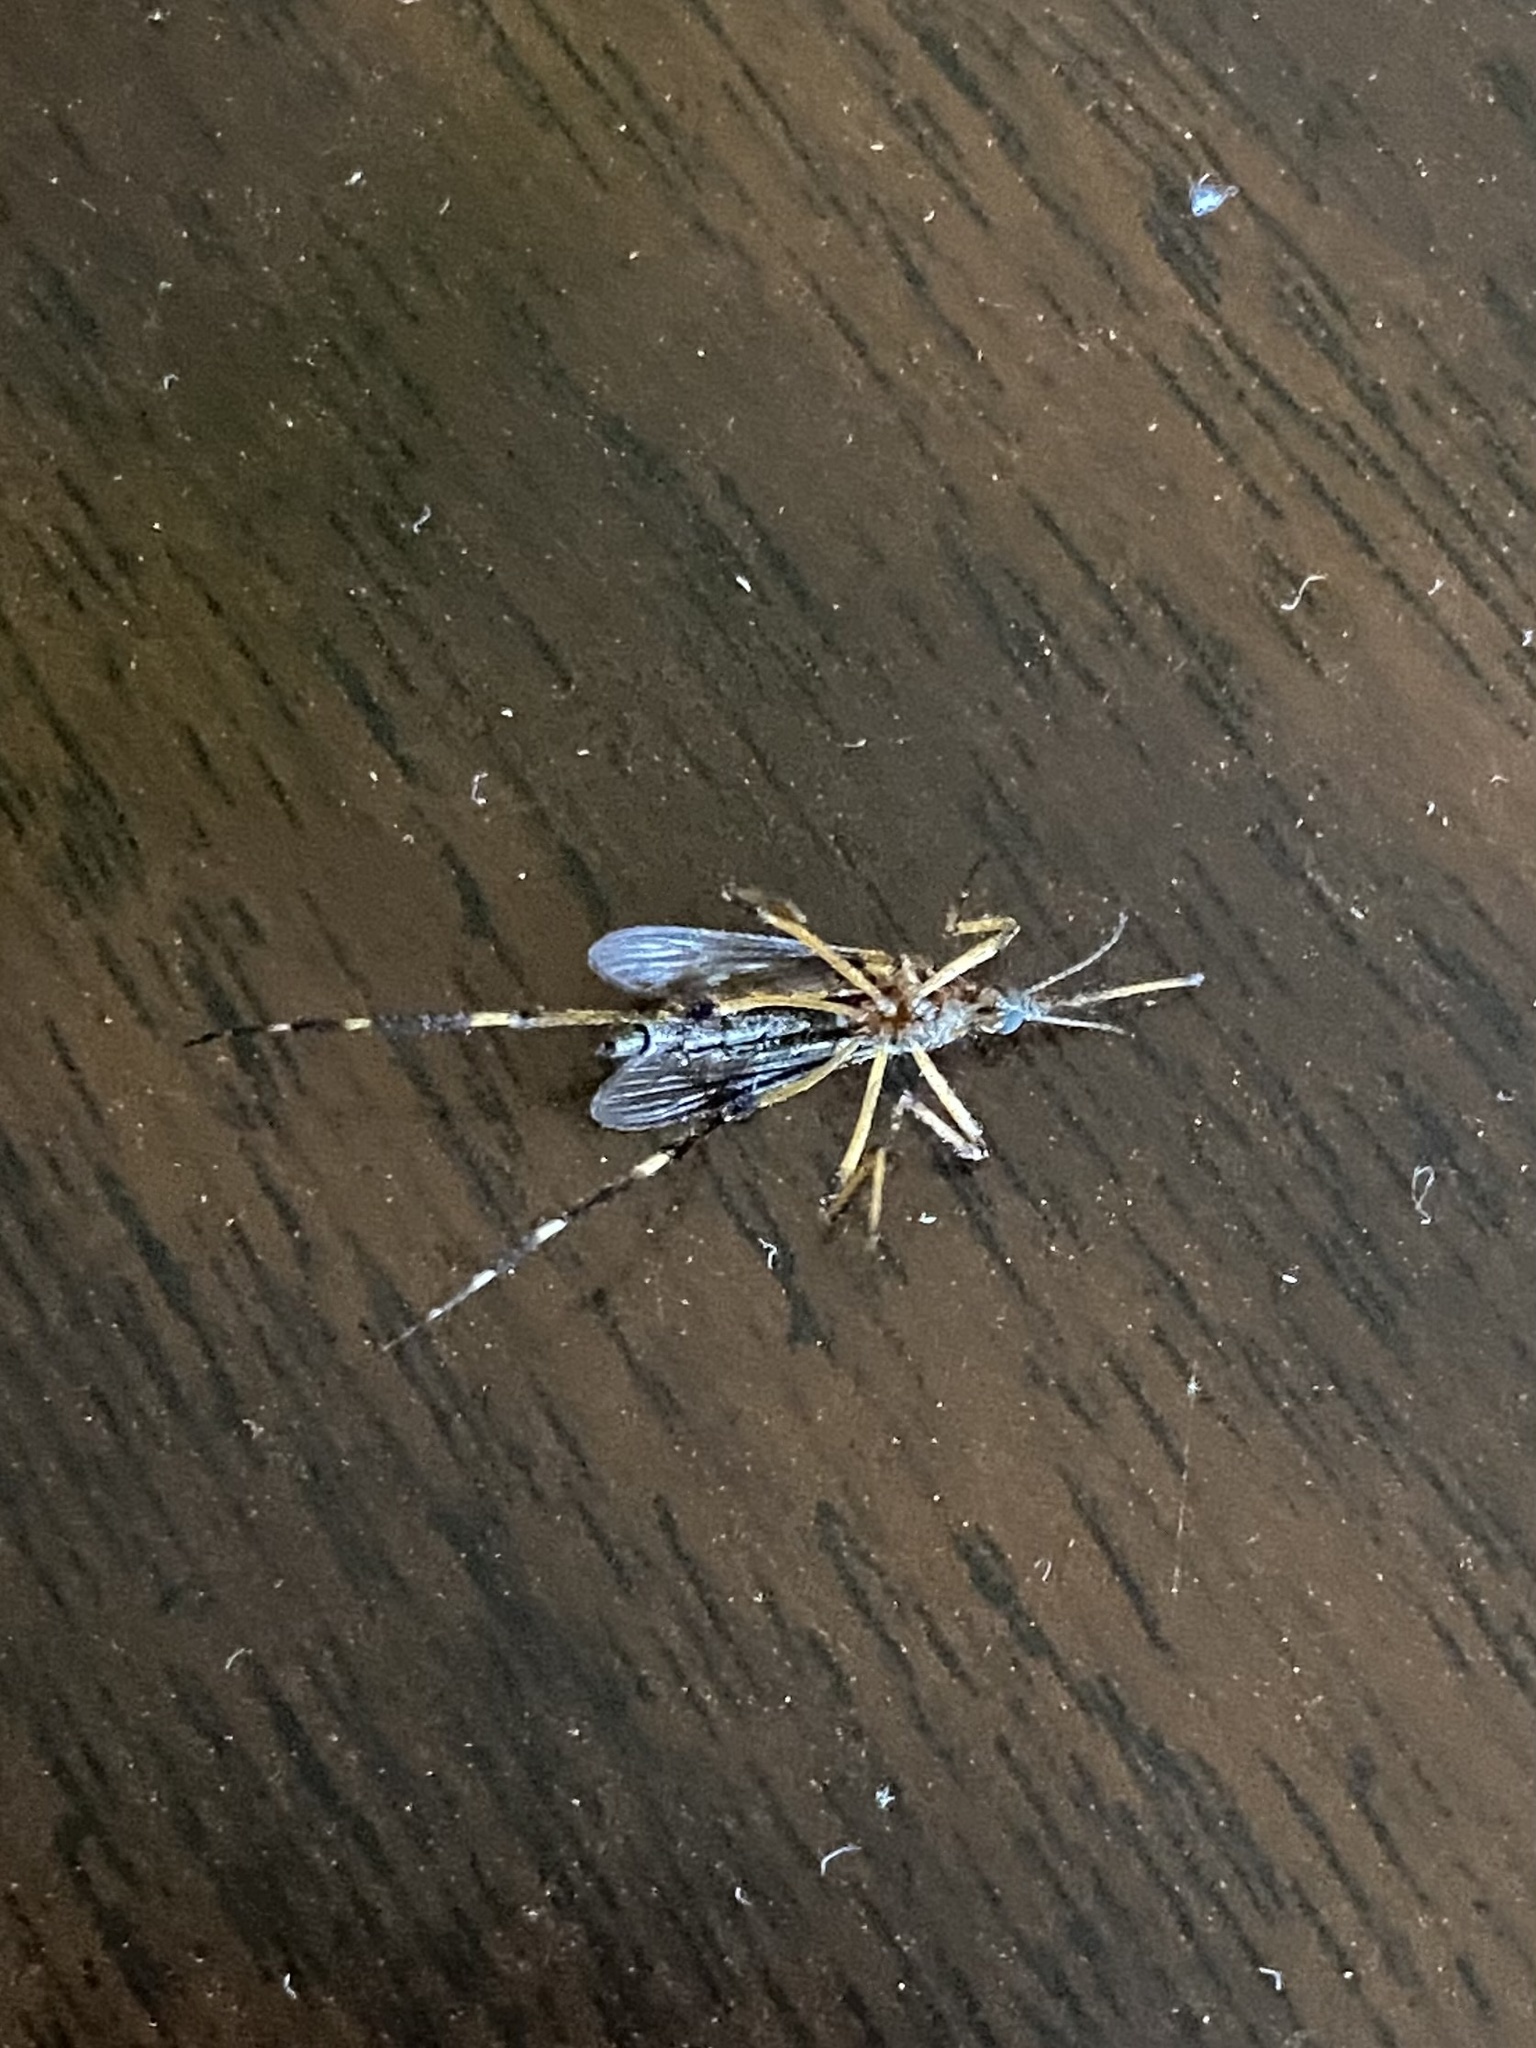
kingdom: Animalia
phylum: Arthropoda
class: Insecta
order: Diptera
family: Culicidae
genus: Psorophora
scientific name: Psorophora ciliata
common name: Gallinipper
